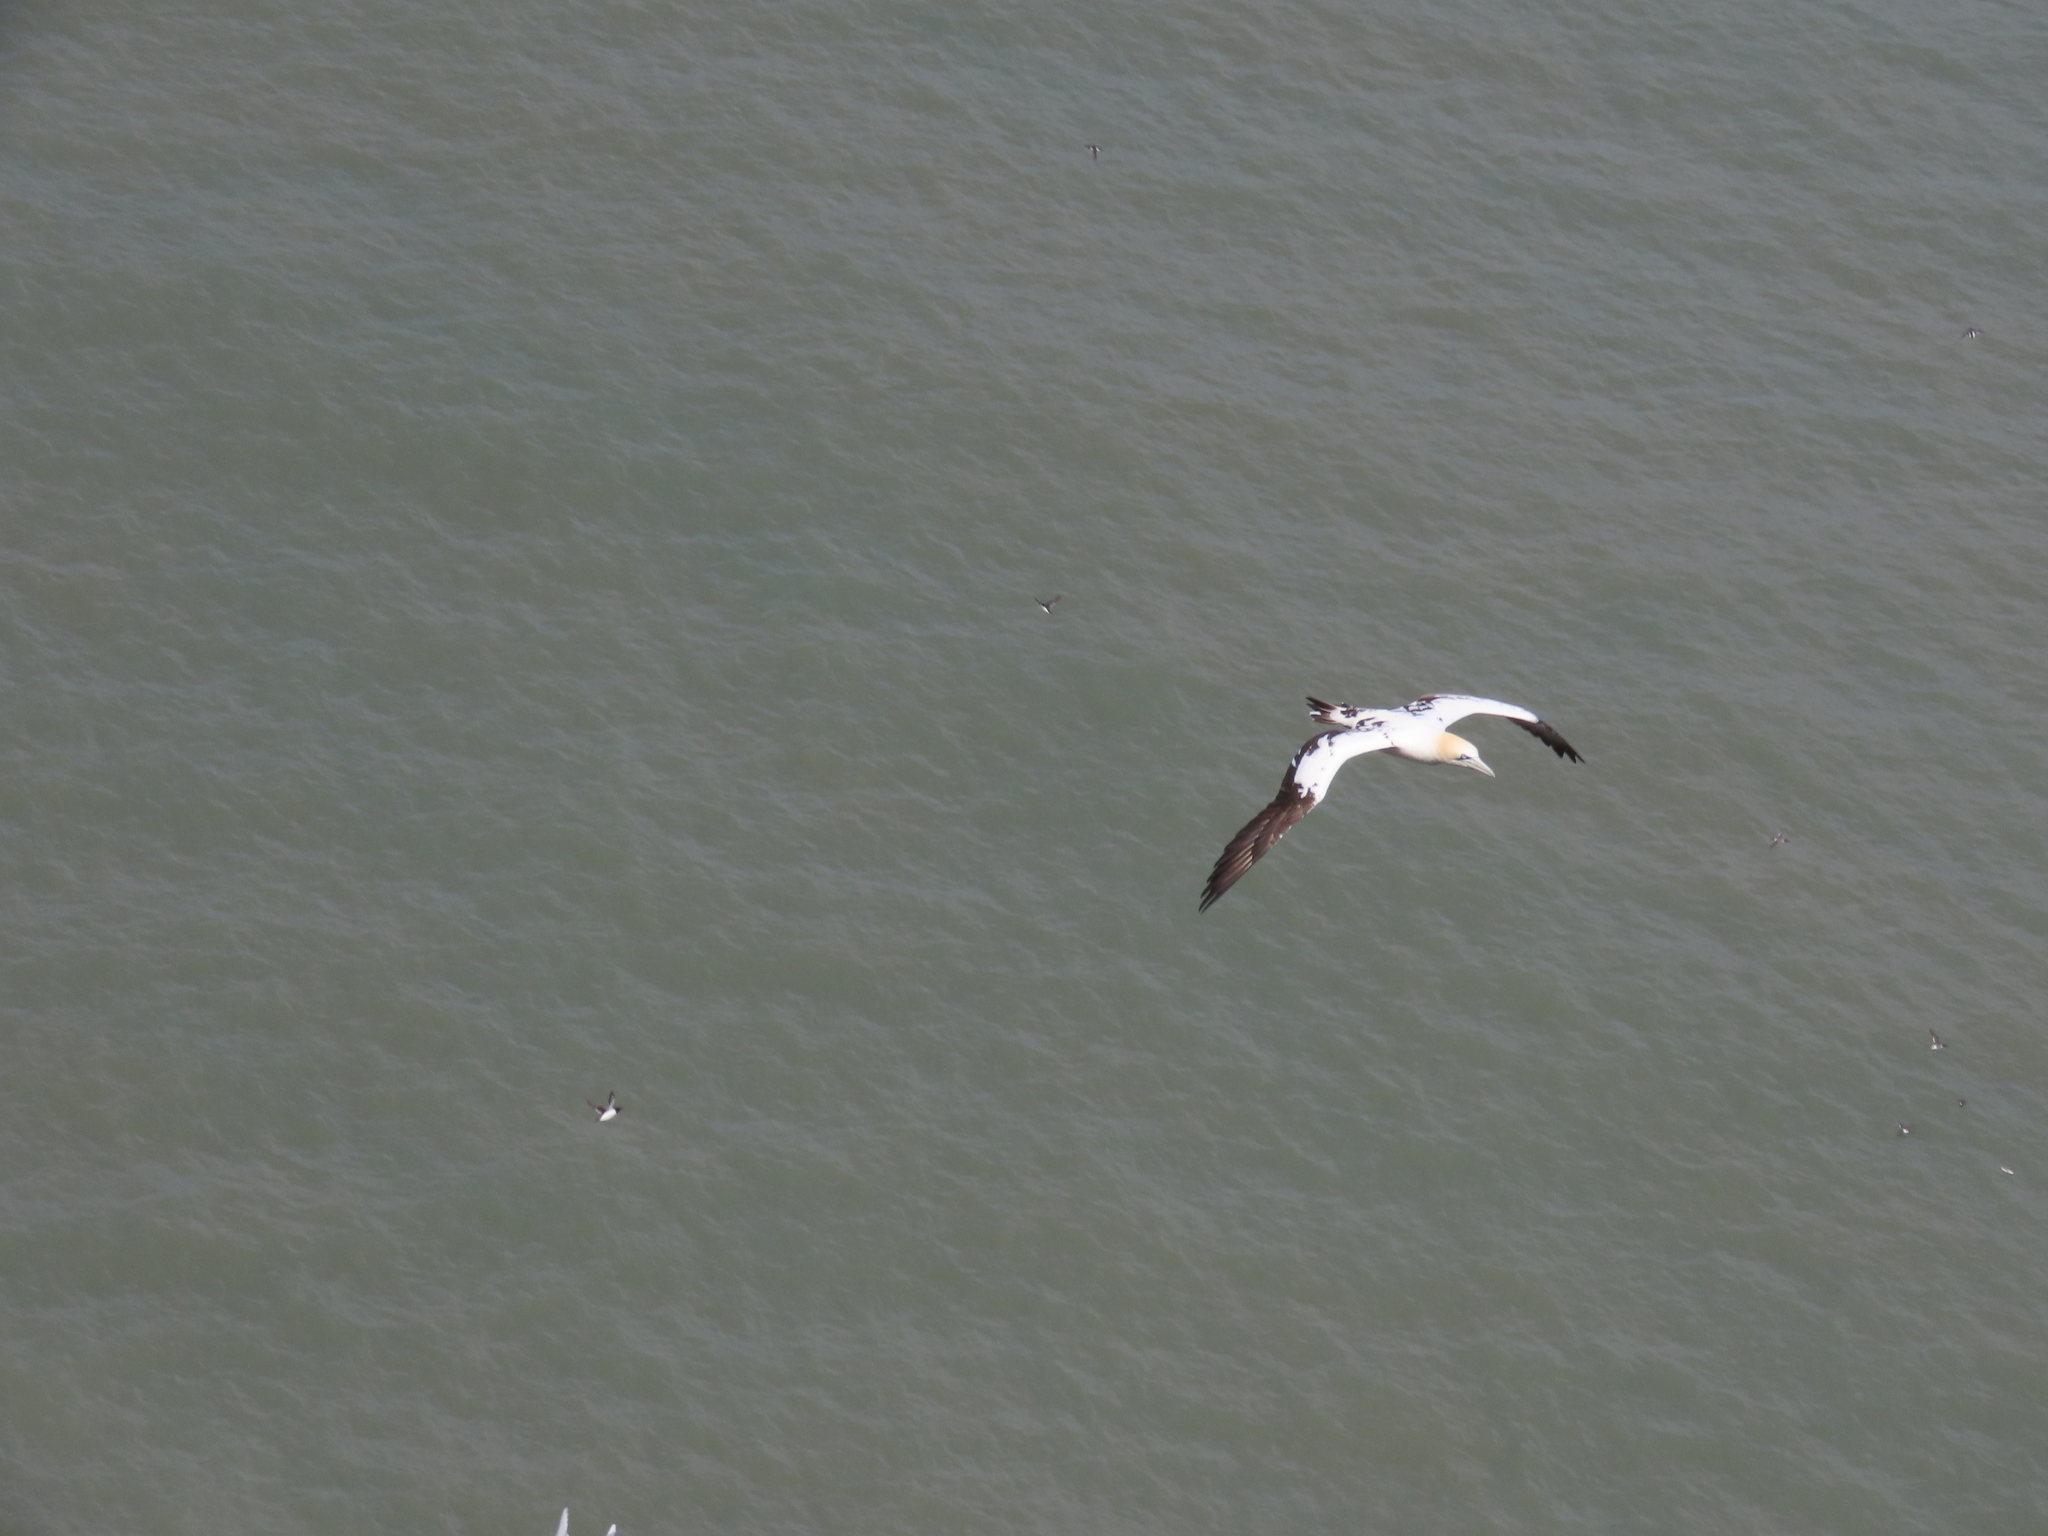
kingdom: Animalia
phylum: Chordata
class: Aves
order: Suliformes
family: Sulidae
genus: Morus
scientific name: Morus bassanus
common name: Northern gannet
